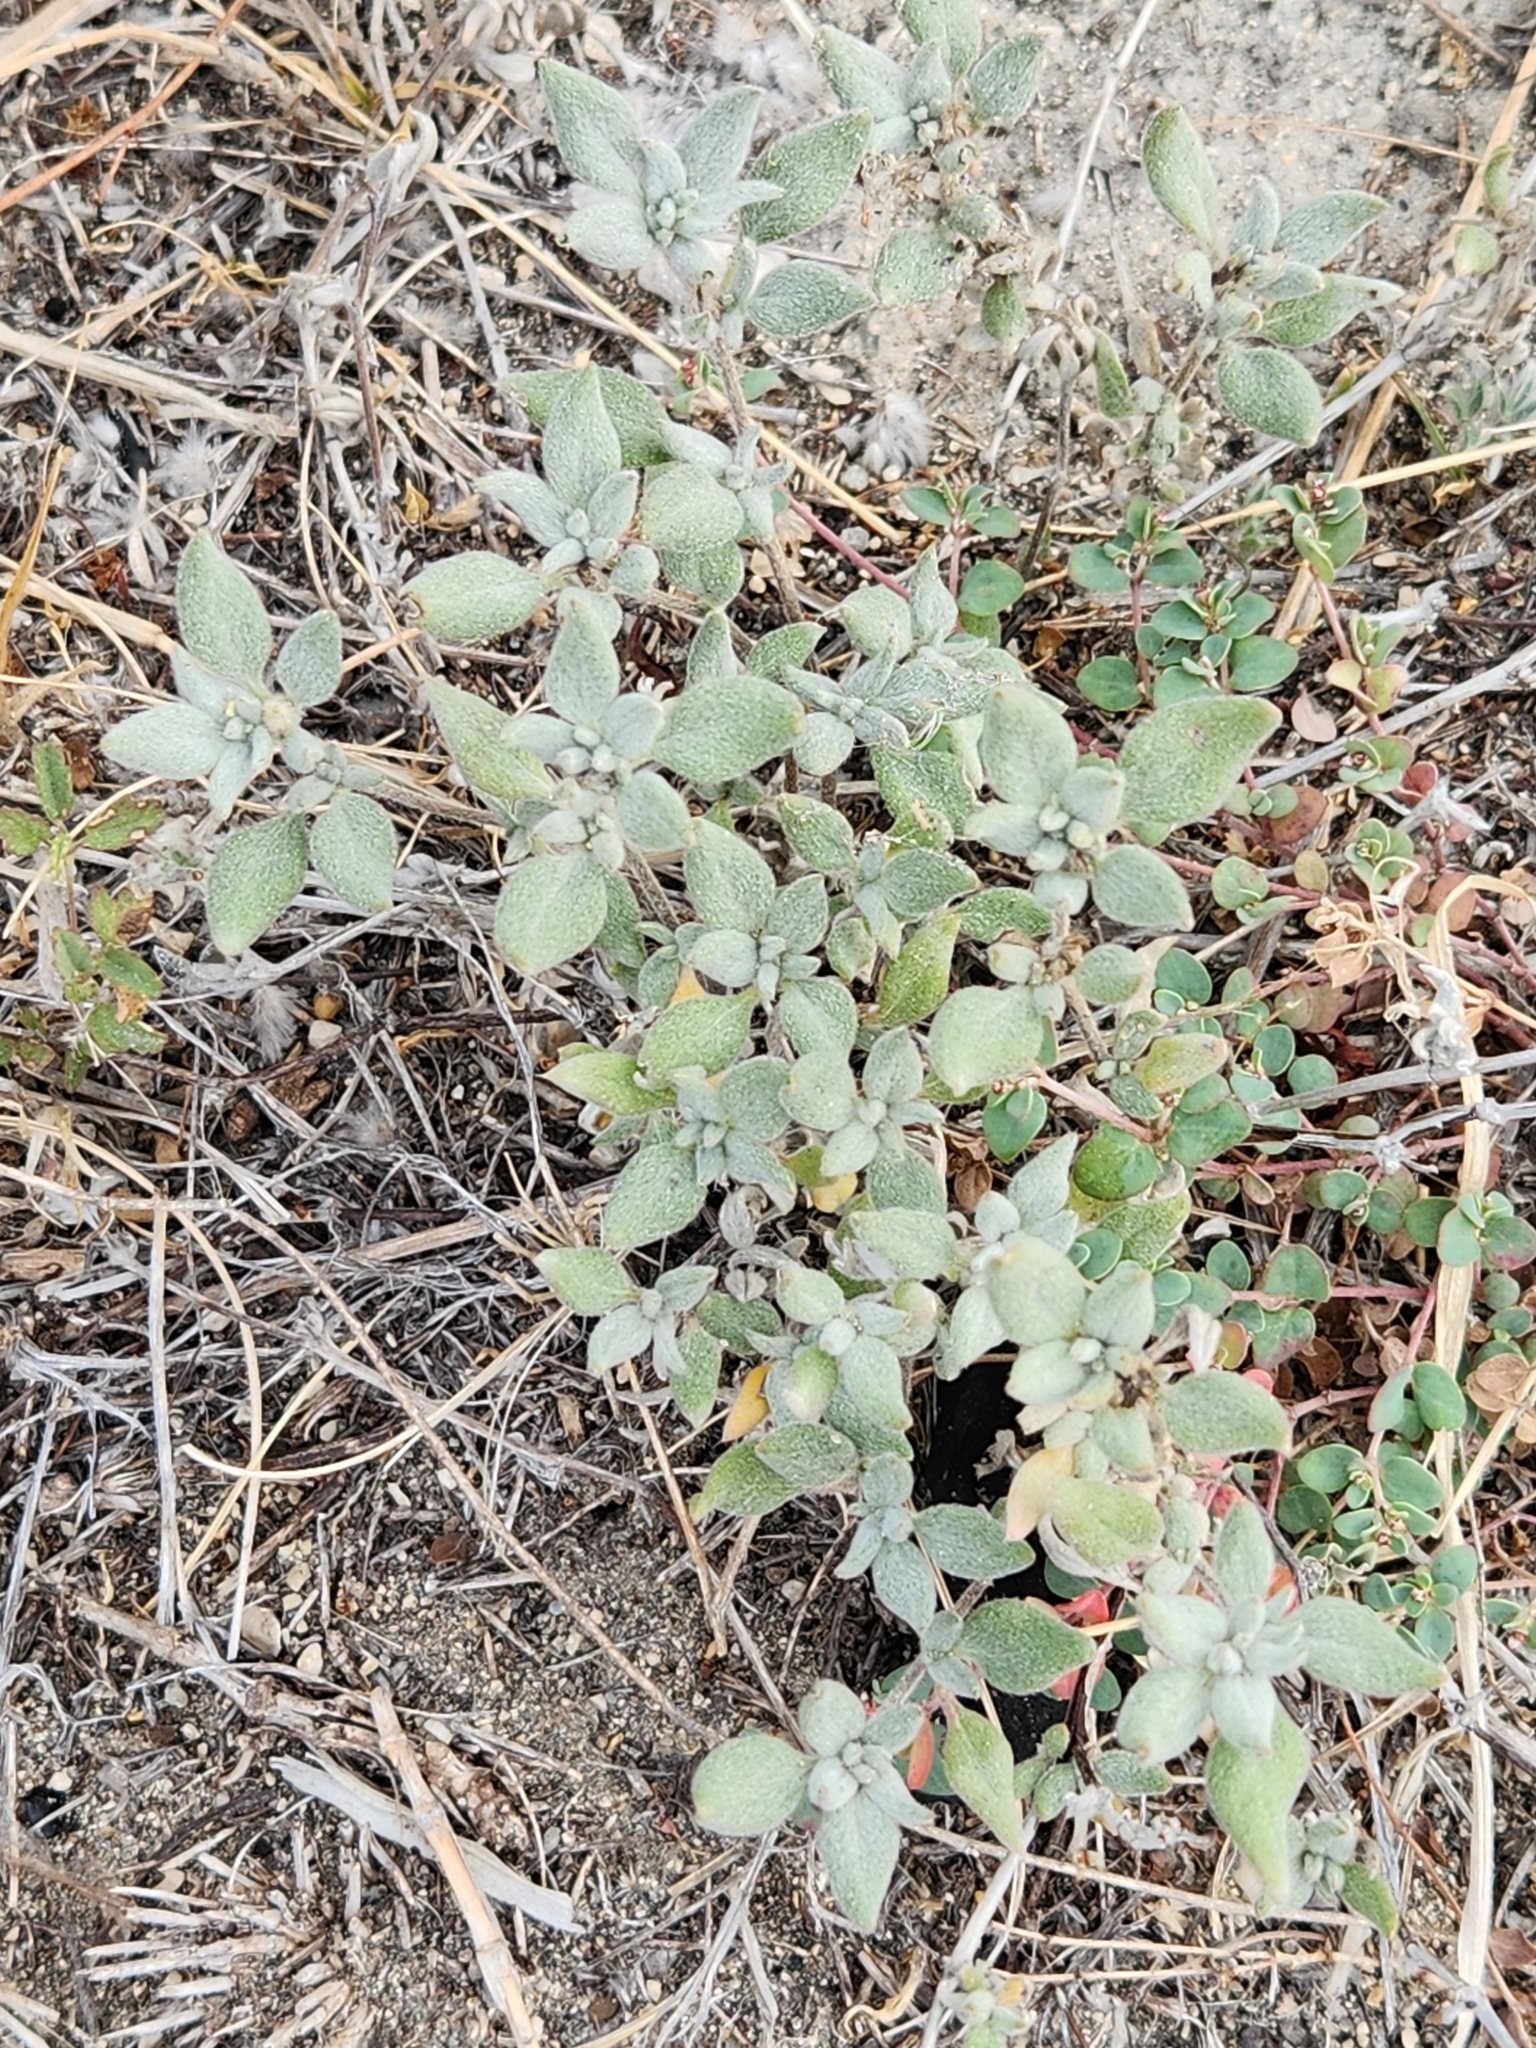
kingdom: Plantae
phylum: Tracheophyta
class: Magnoliopsida
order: Boraginales
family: Ehretiaceae
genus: Tiquilia
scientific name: Tiquilia canescens
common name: Hairy tiquilia
